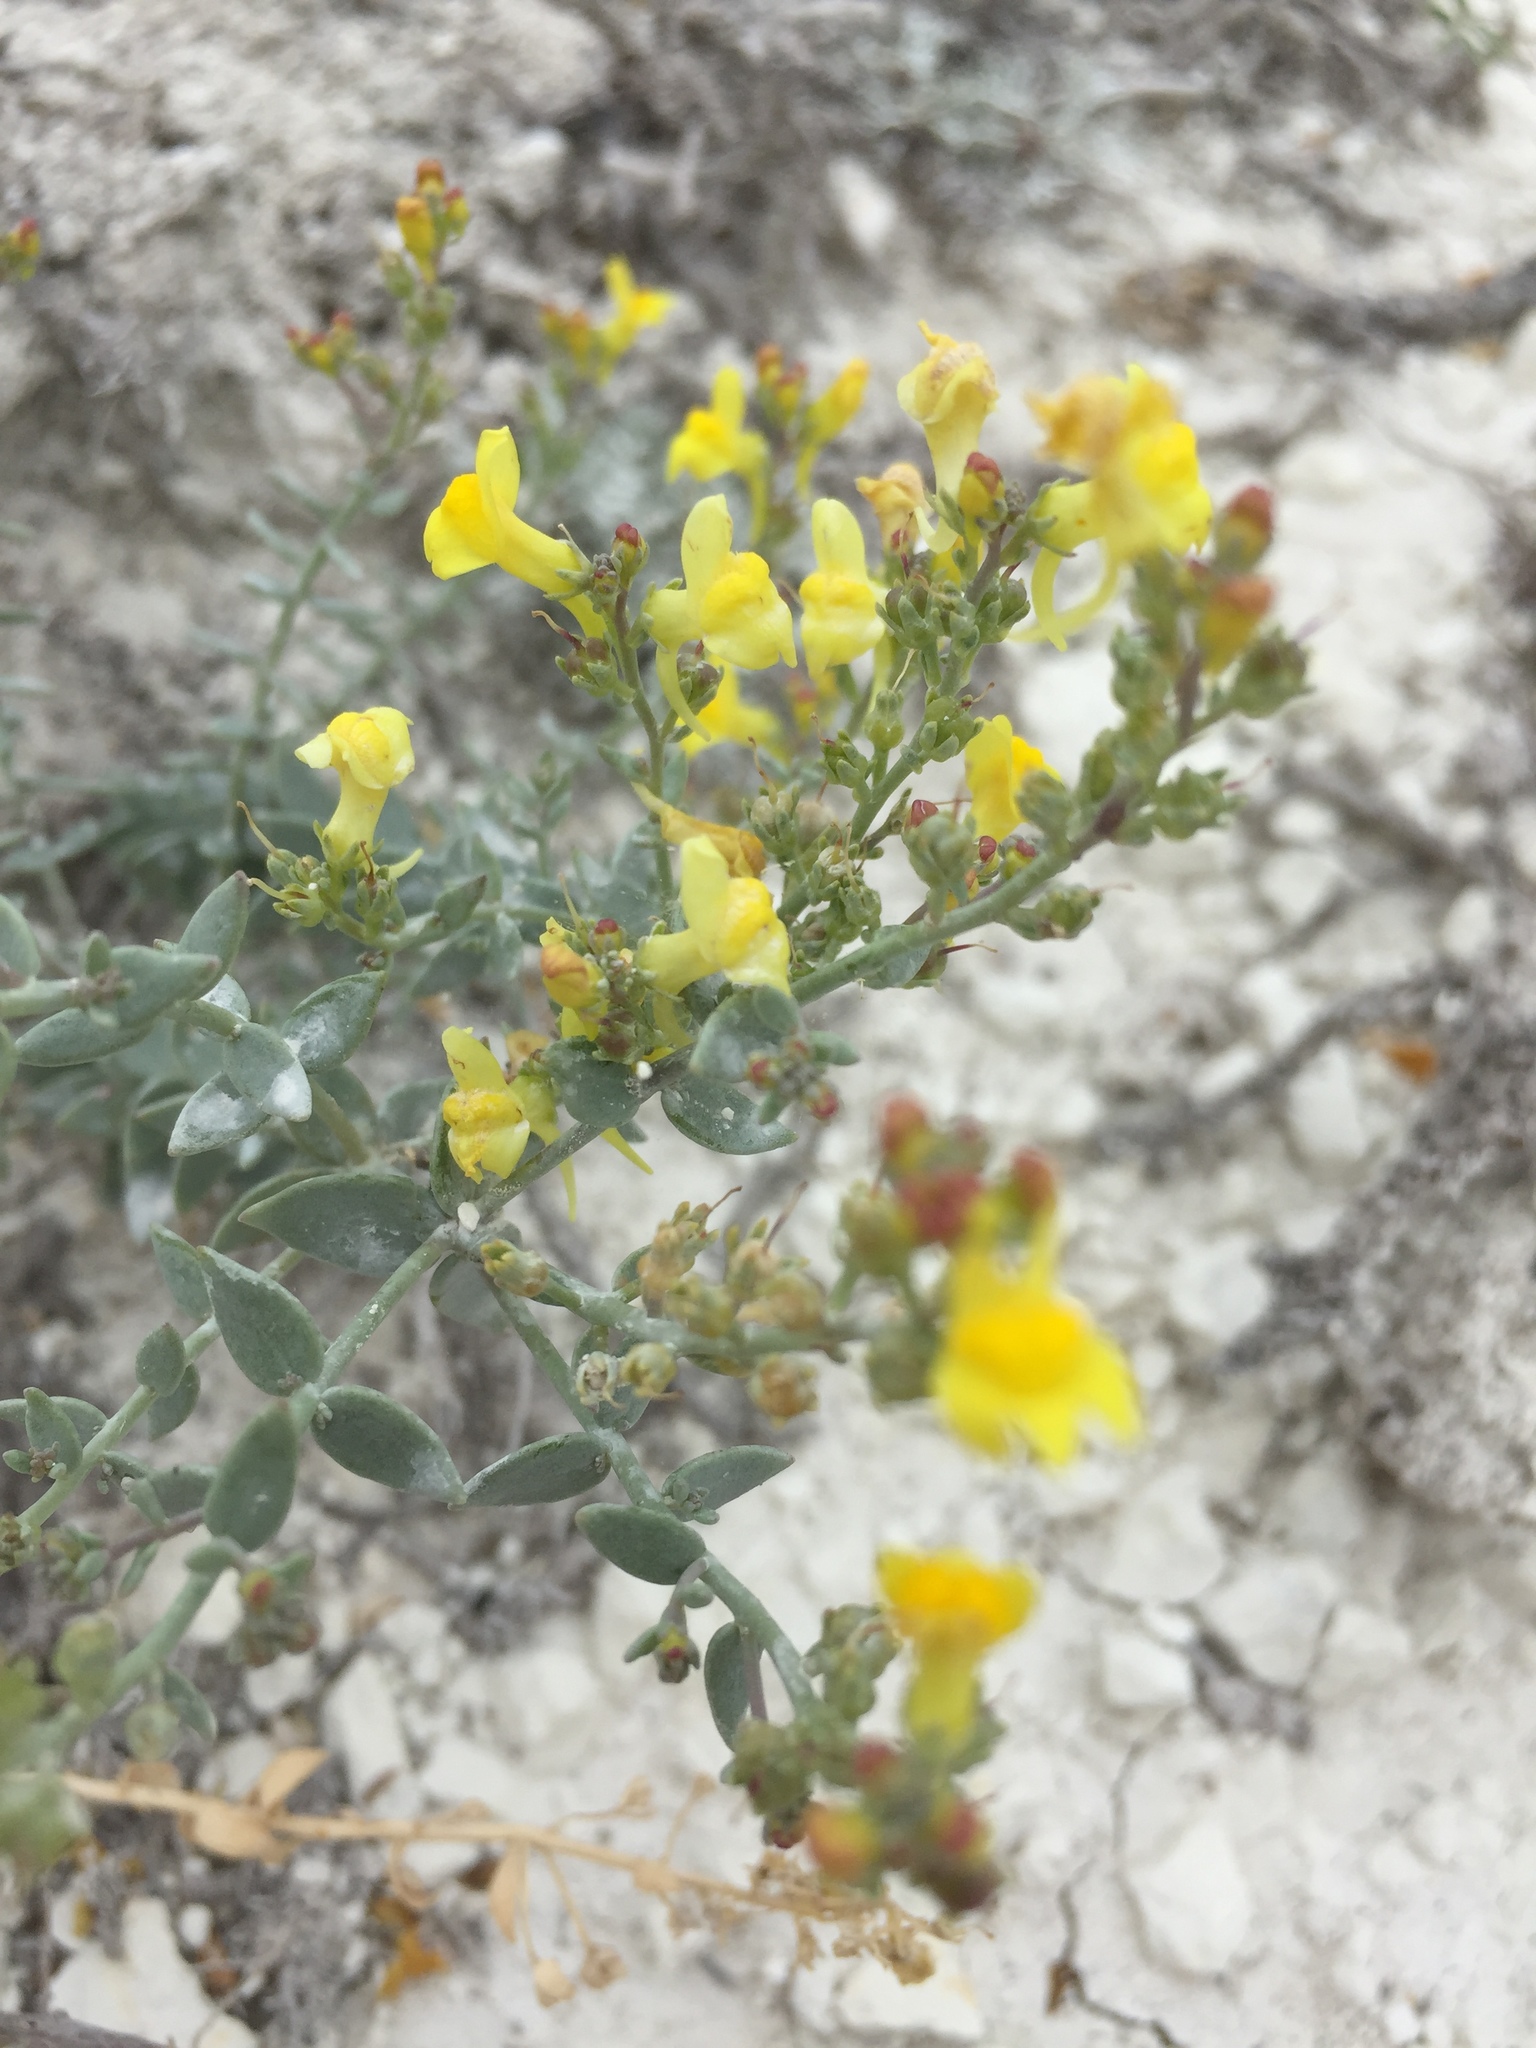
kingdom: Plantae
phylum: Tracheophyta
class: Magnoliopsida
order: Lamiales
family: Plantaginaceae
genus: Linaria
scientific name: Linaria cretacea
